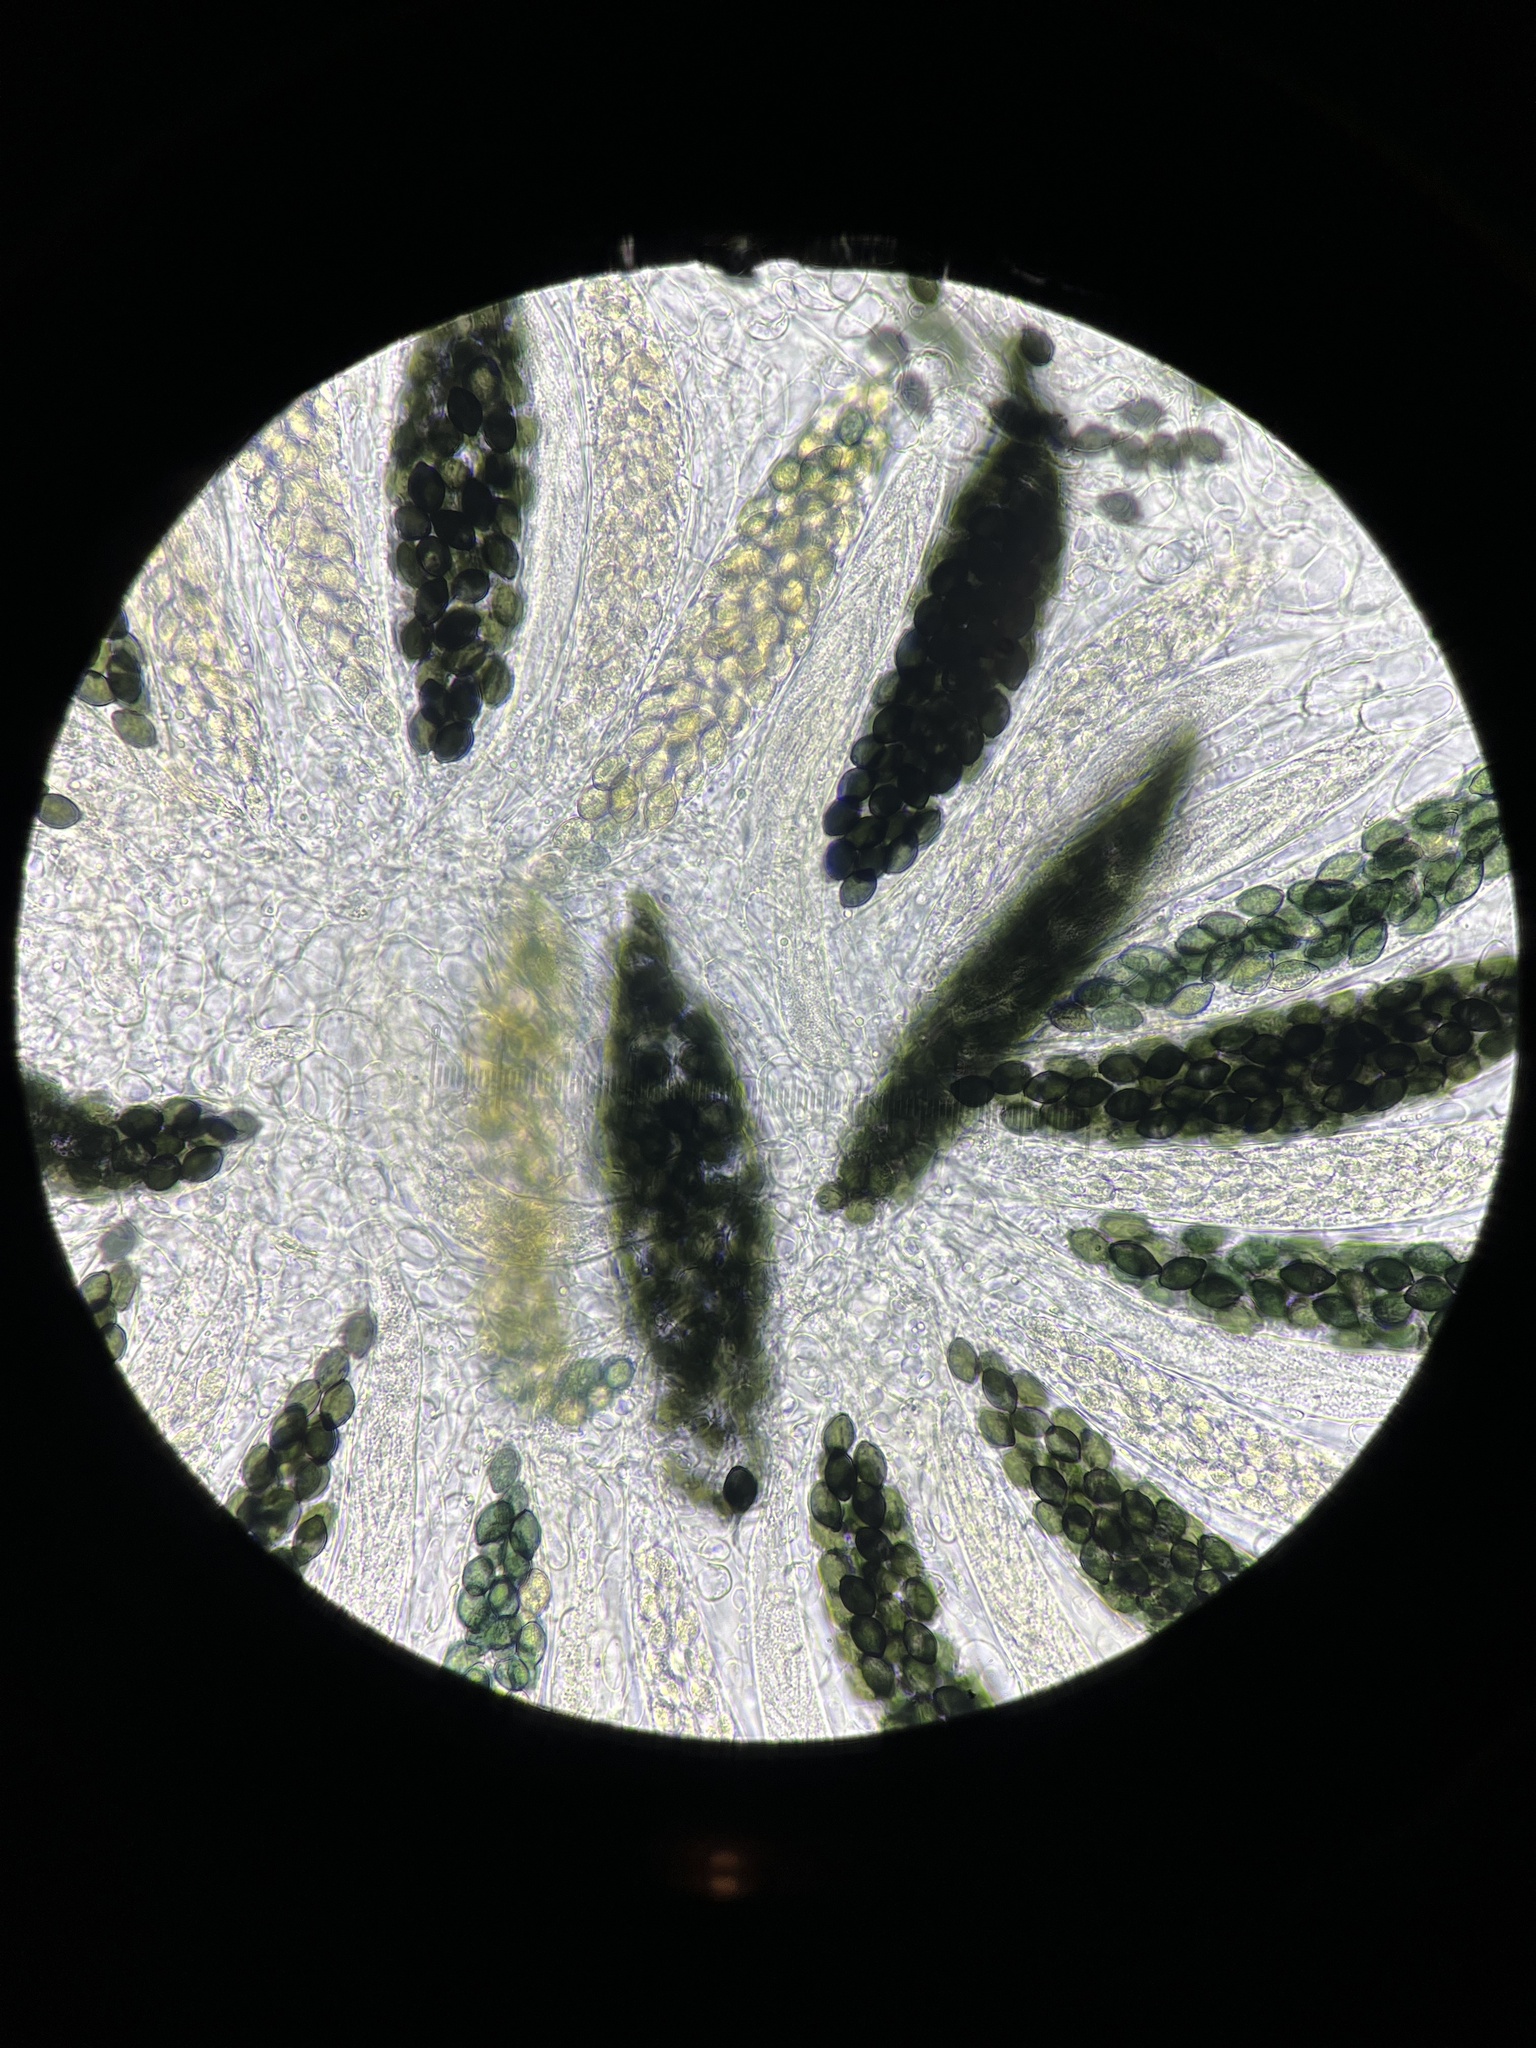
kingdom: Fungi
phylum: Ascomycota
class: Sordariomycetes
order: Sordariales
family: Podosporaceae
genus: Triangularia
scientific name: Triangularia setosa
